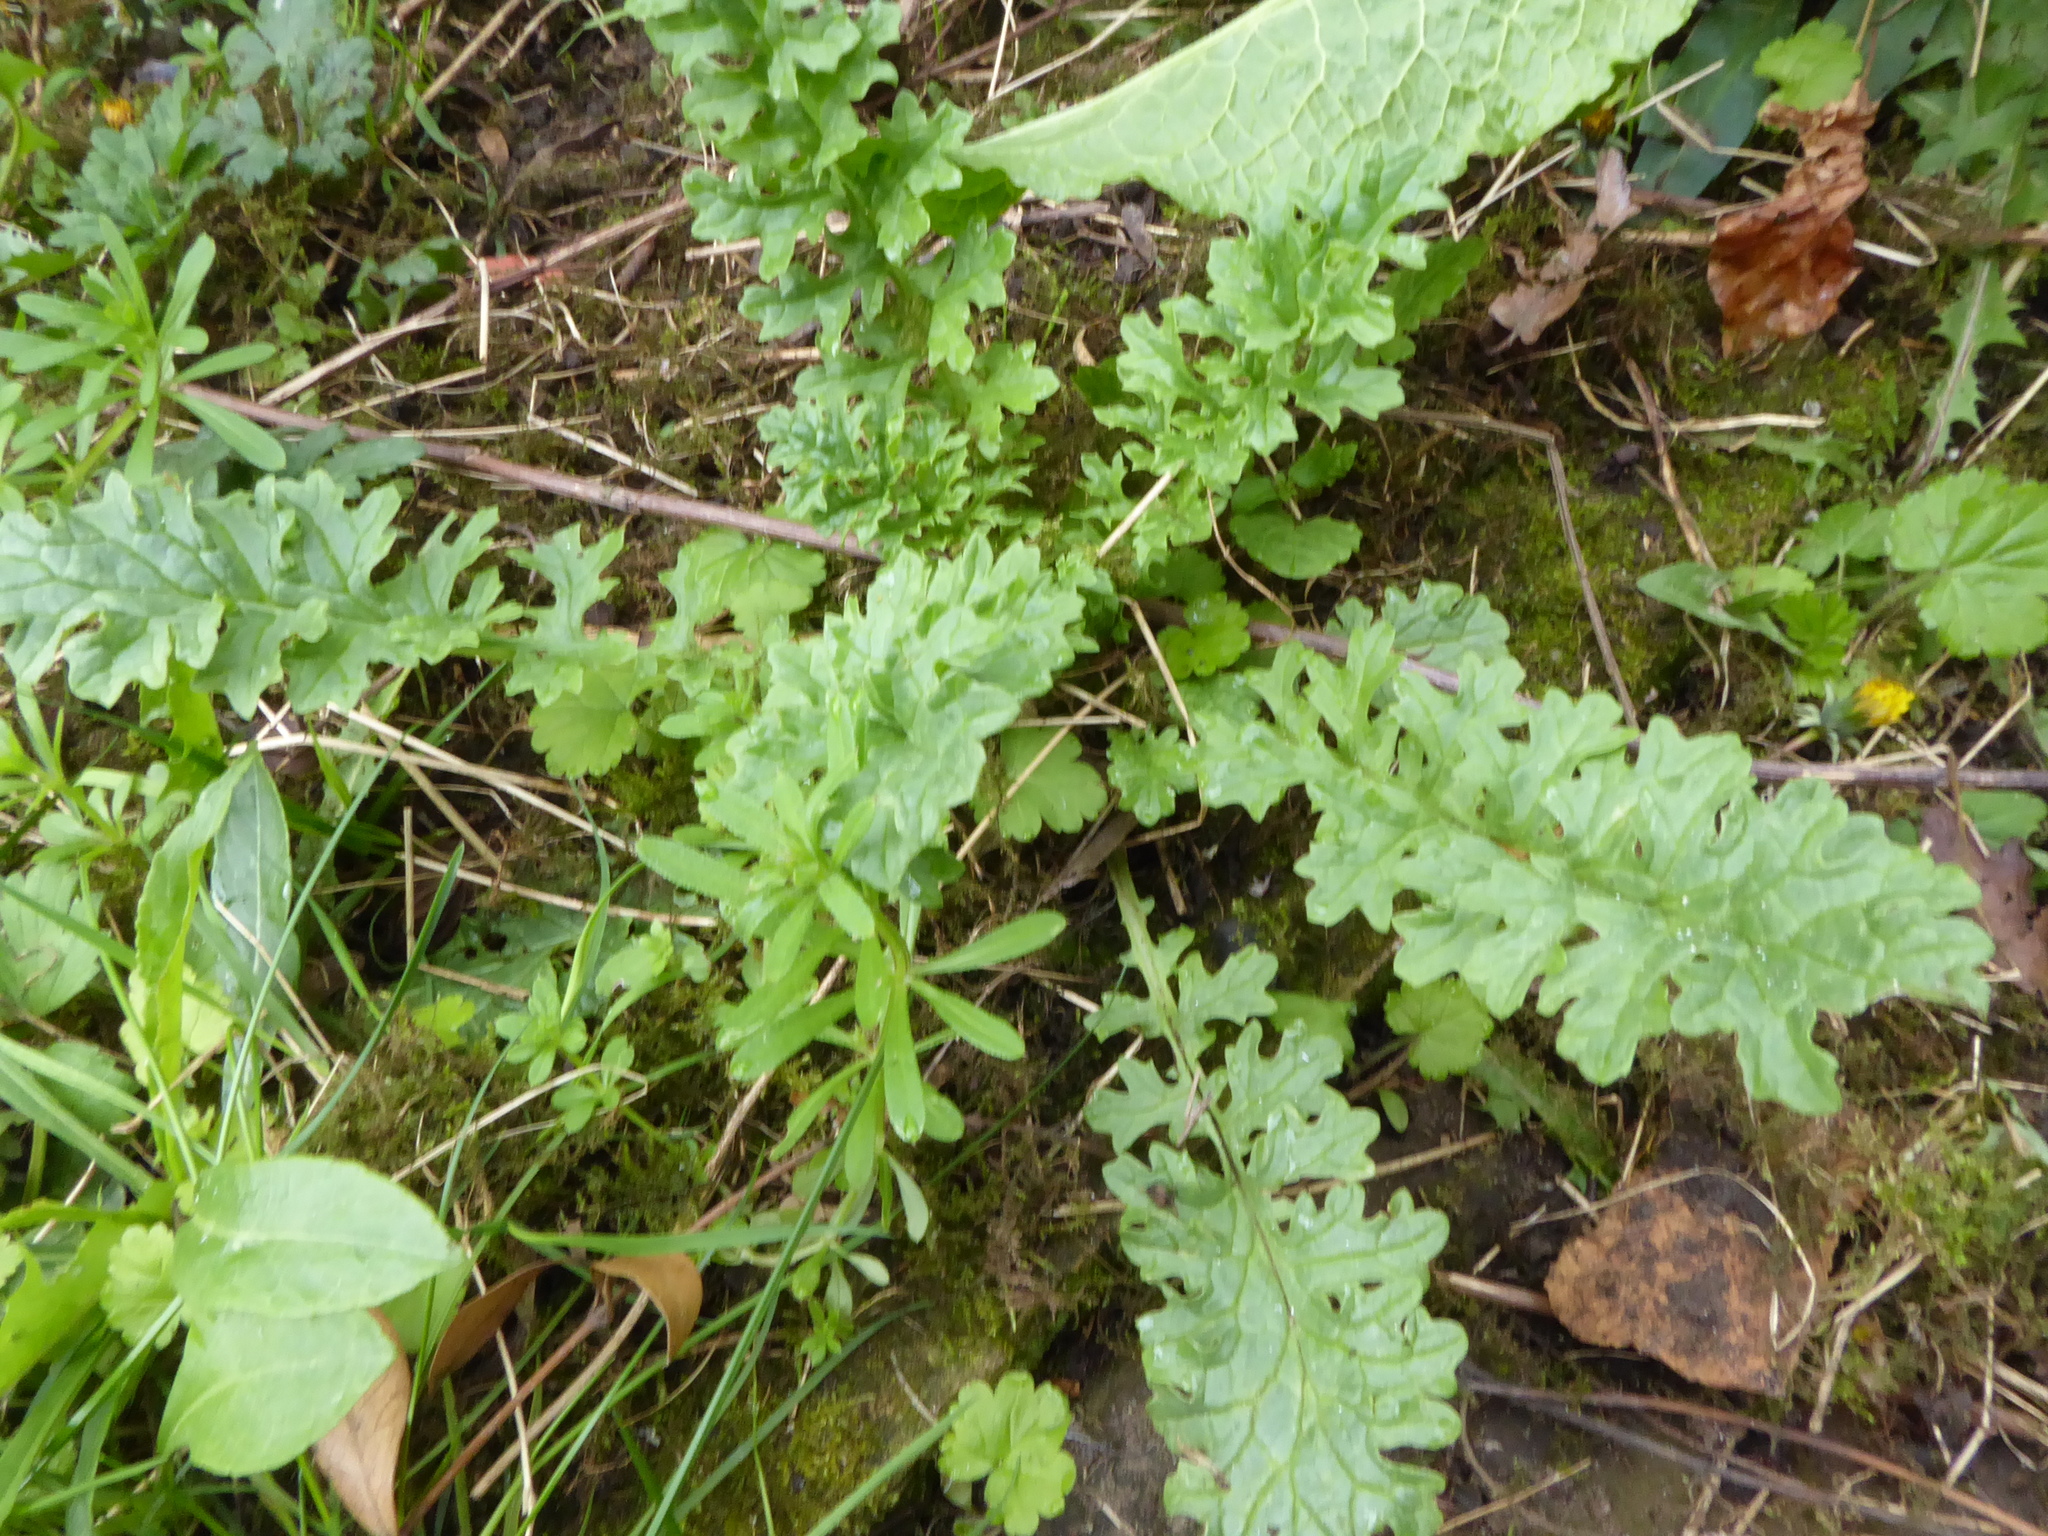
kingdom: Plantae
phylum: Tracheophyta
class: Magnoliopsida
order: Asterales
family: Asteraceae
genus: Jacobaea
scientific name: Jacobaea vulgaris
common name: Stinking willie
